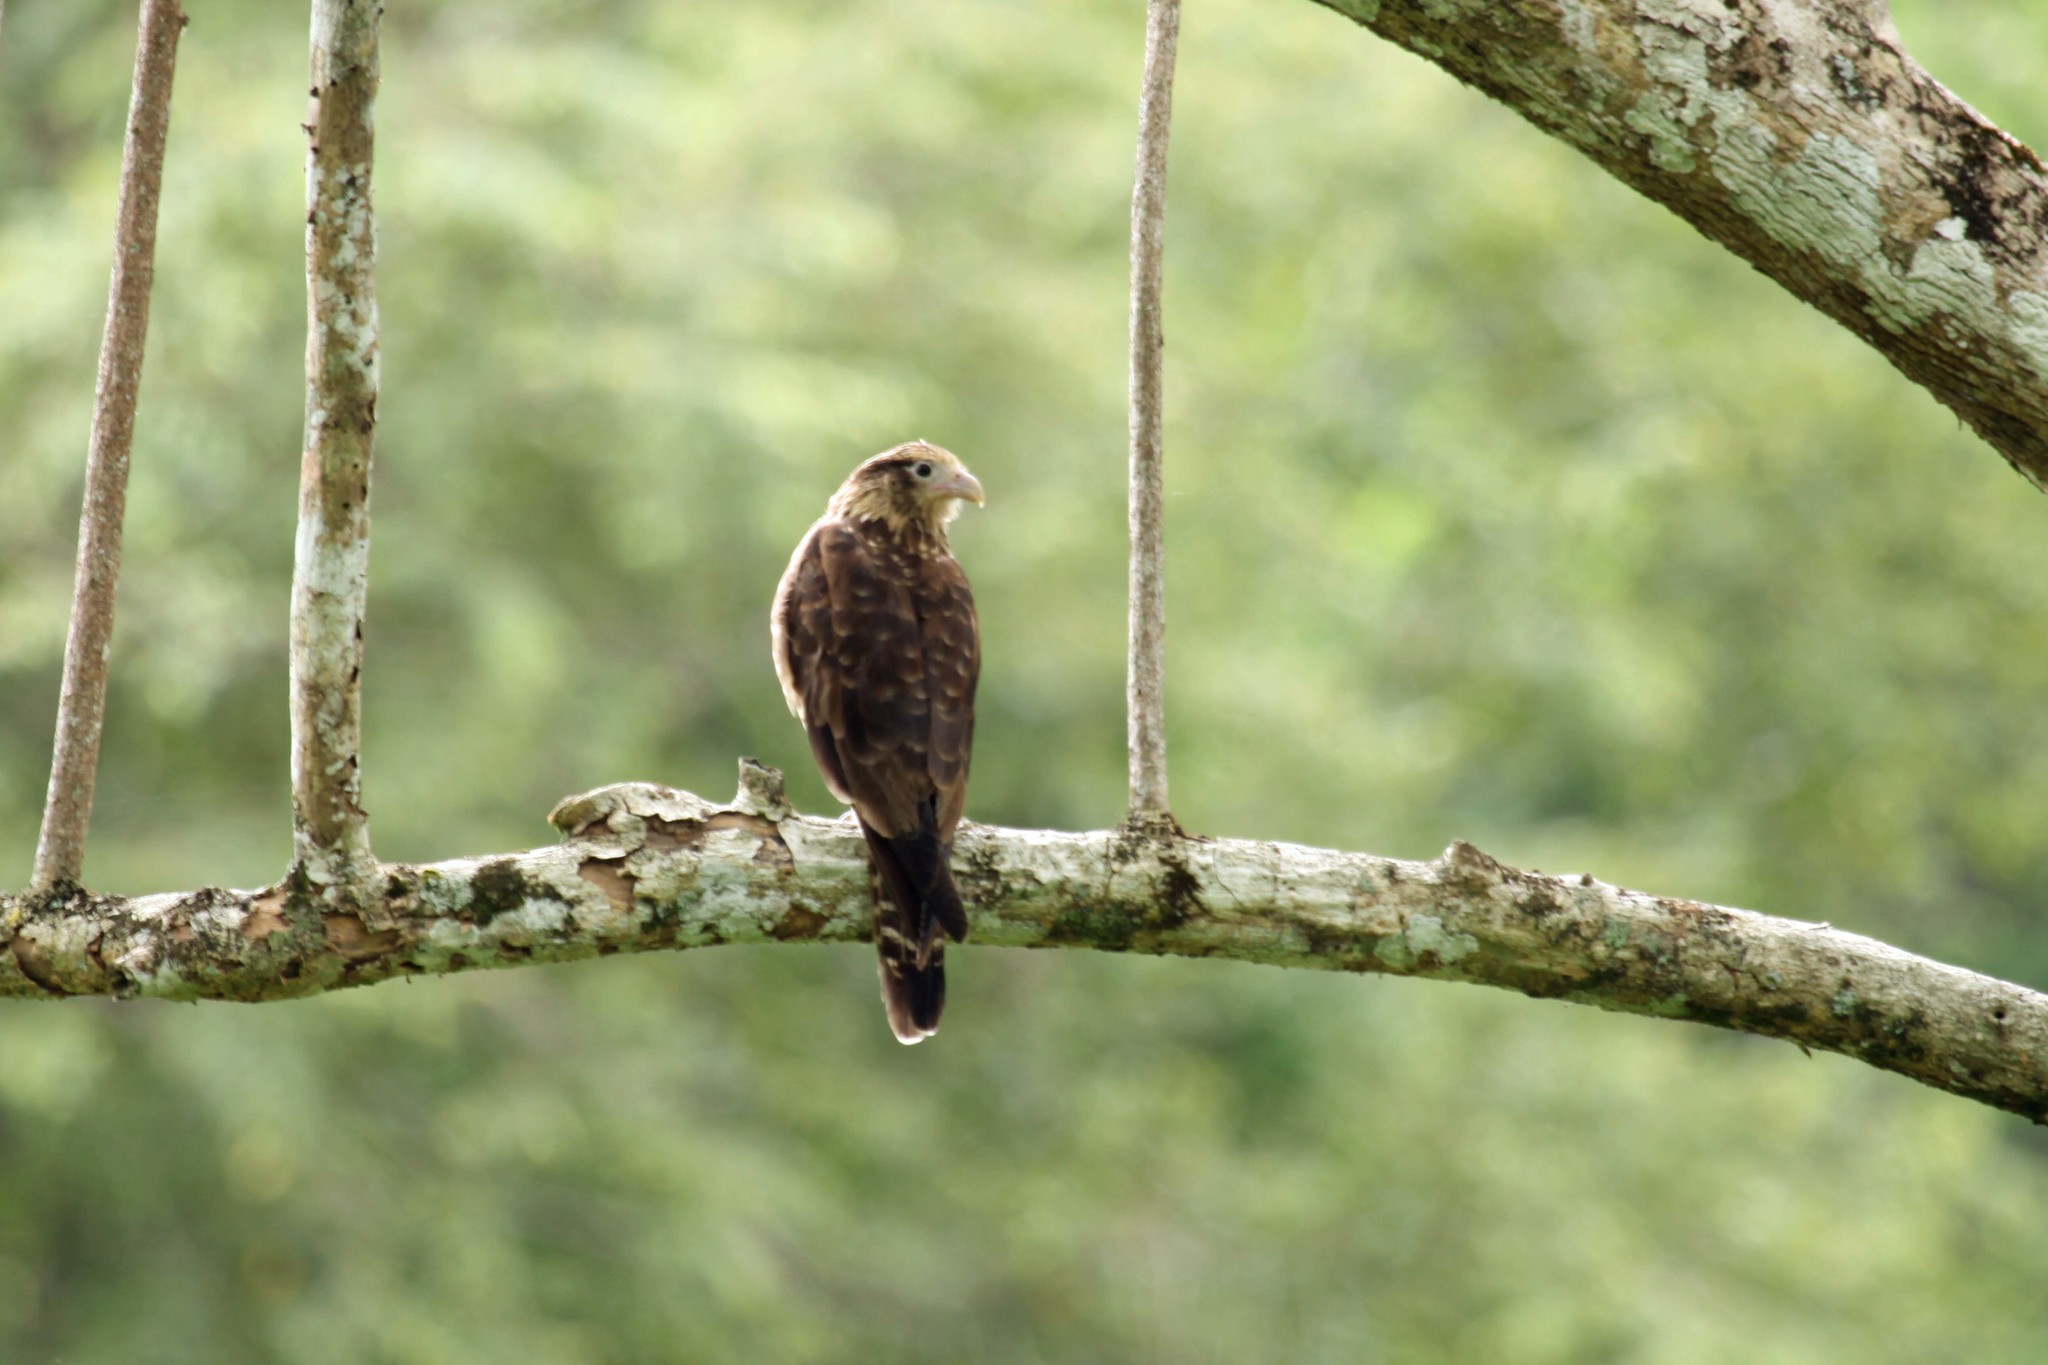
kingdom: Animalia
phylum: Chordata
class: Aves
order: Falconiformes
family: Falconidae
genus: Daptrius
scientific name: Daptrius
